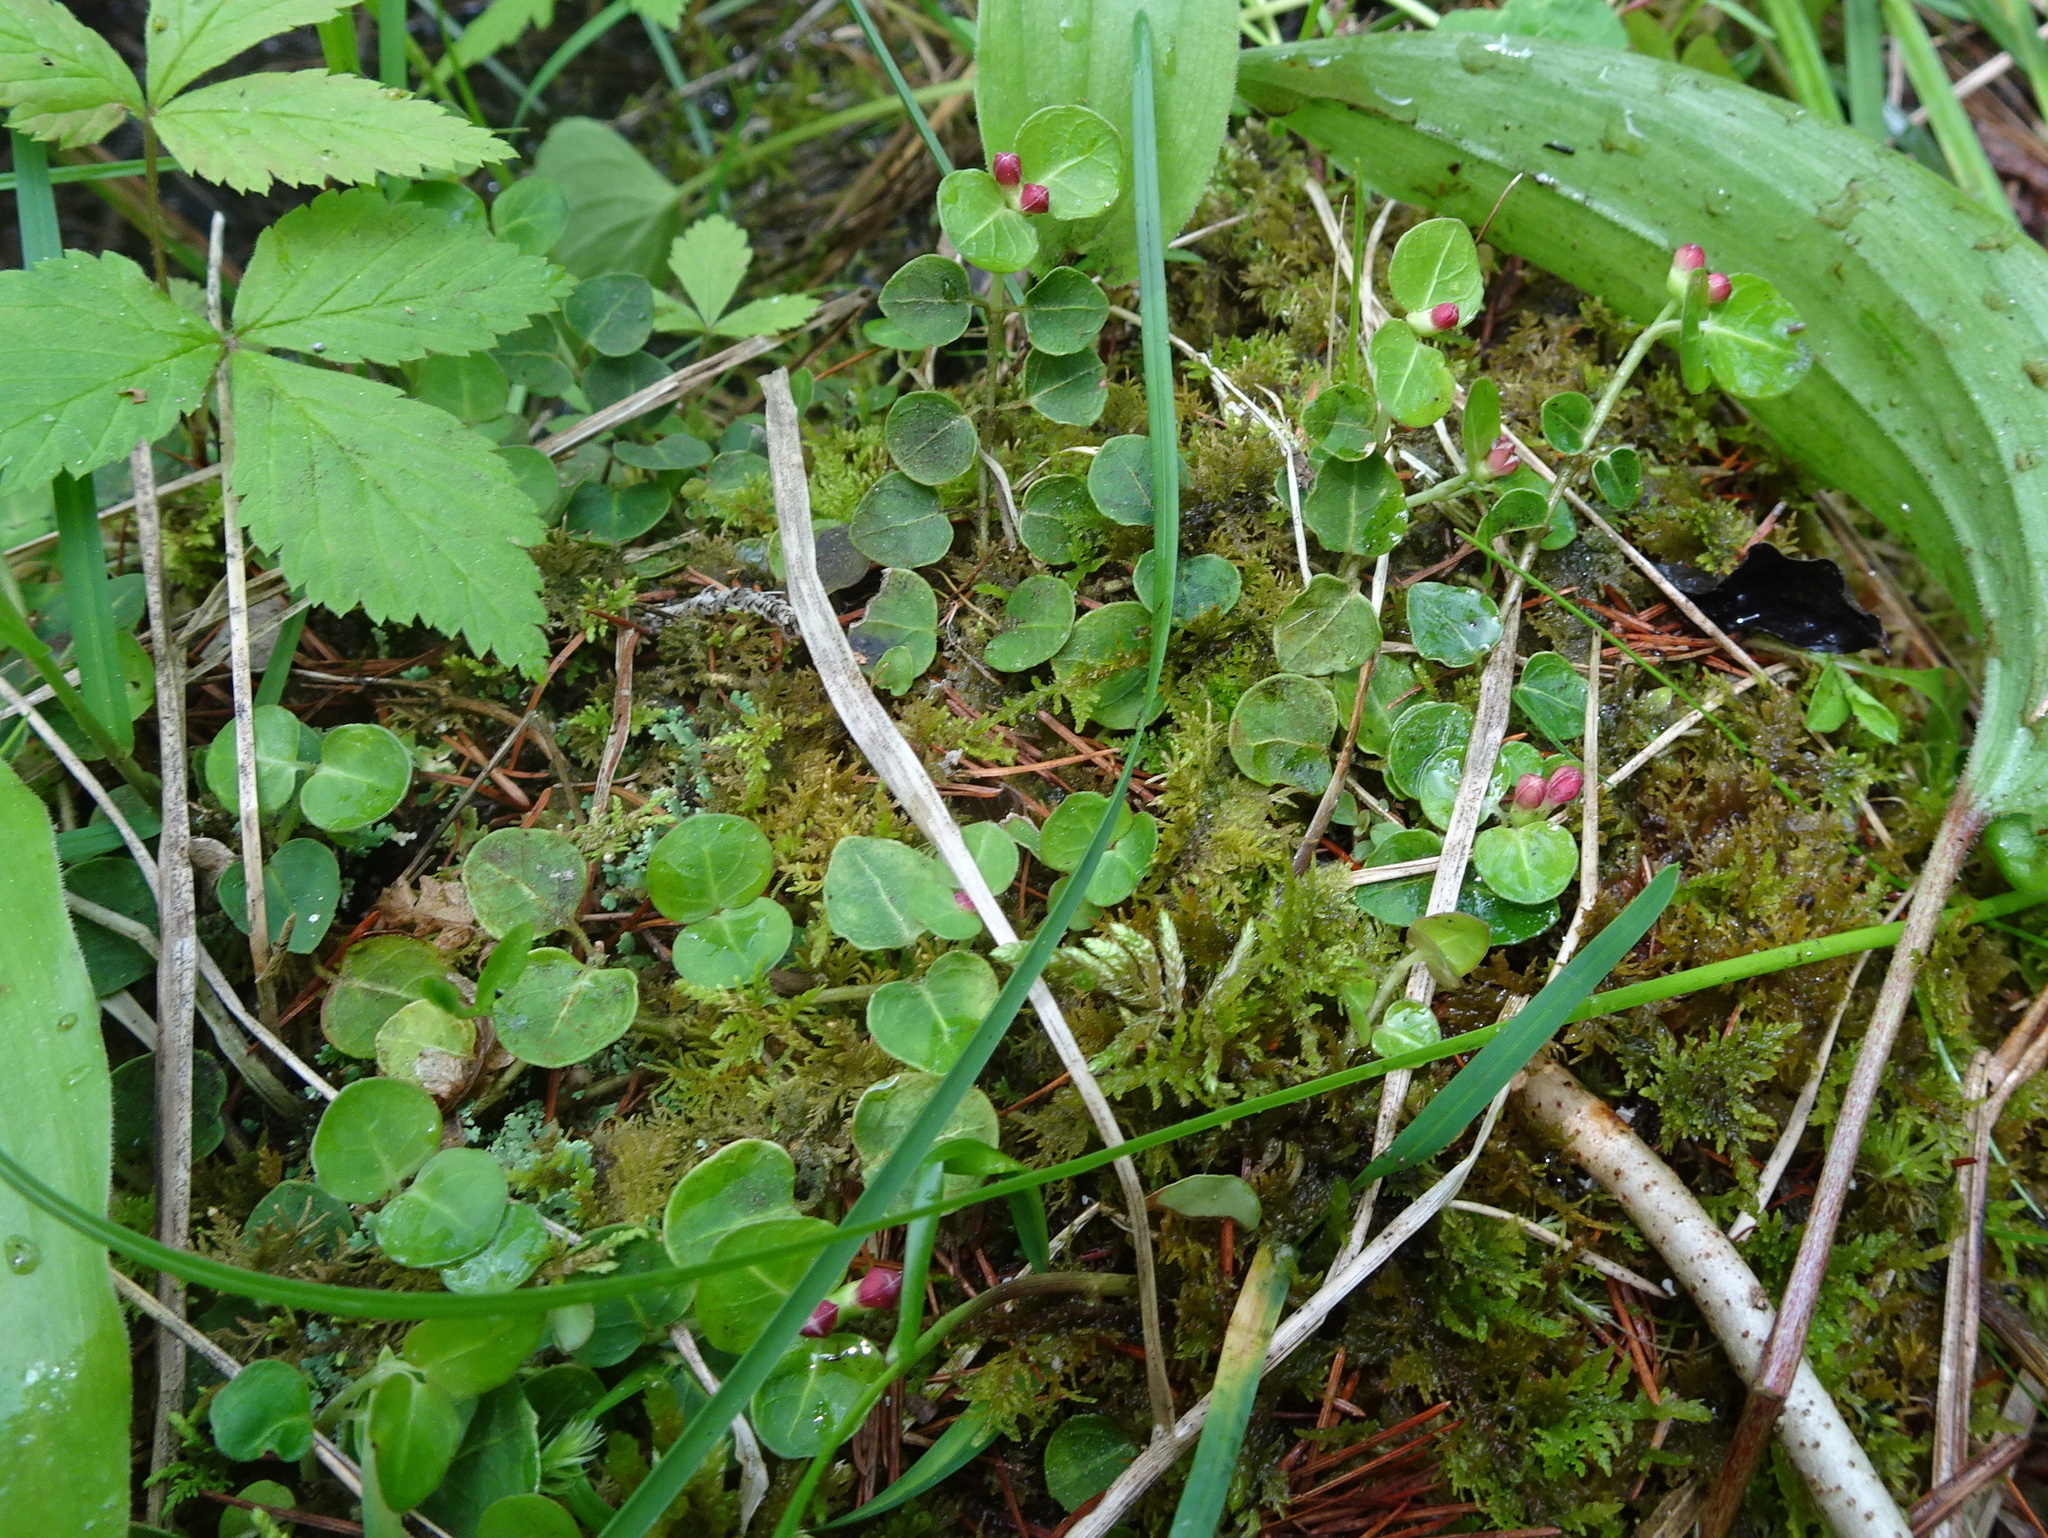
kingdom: Plantae
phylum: Tracheophyta
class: Magnoliopsida
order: Gentianales
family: Rubiaceae
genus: Mitchella
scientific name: Mitchella repens
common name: Partridge-berry
